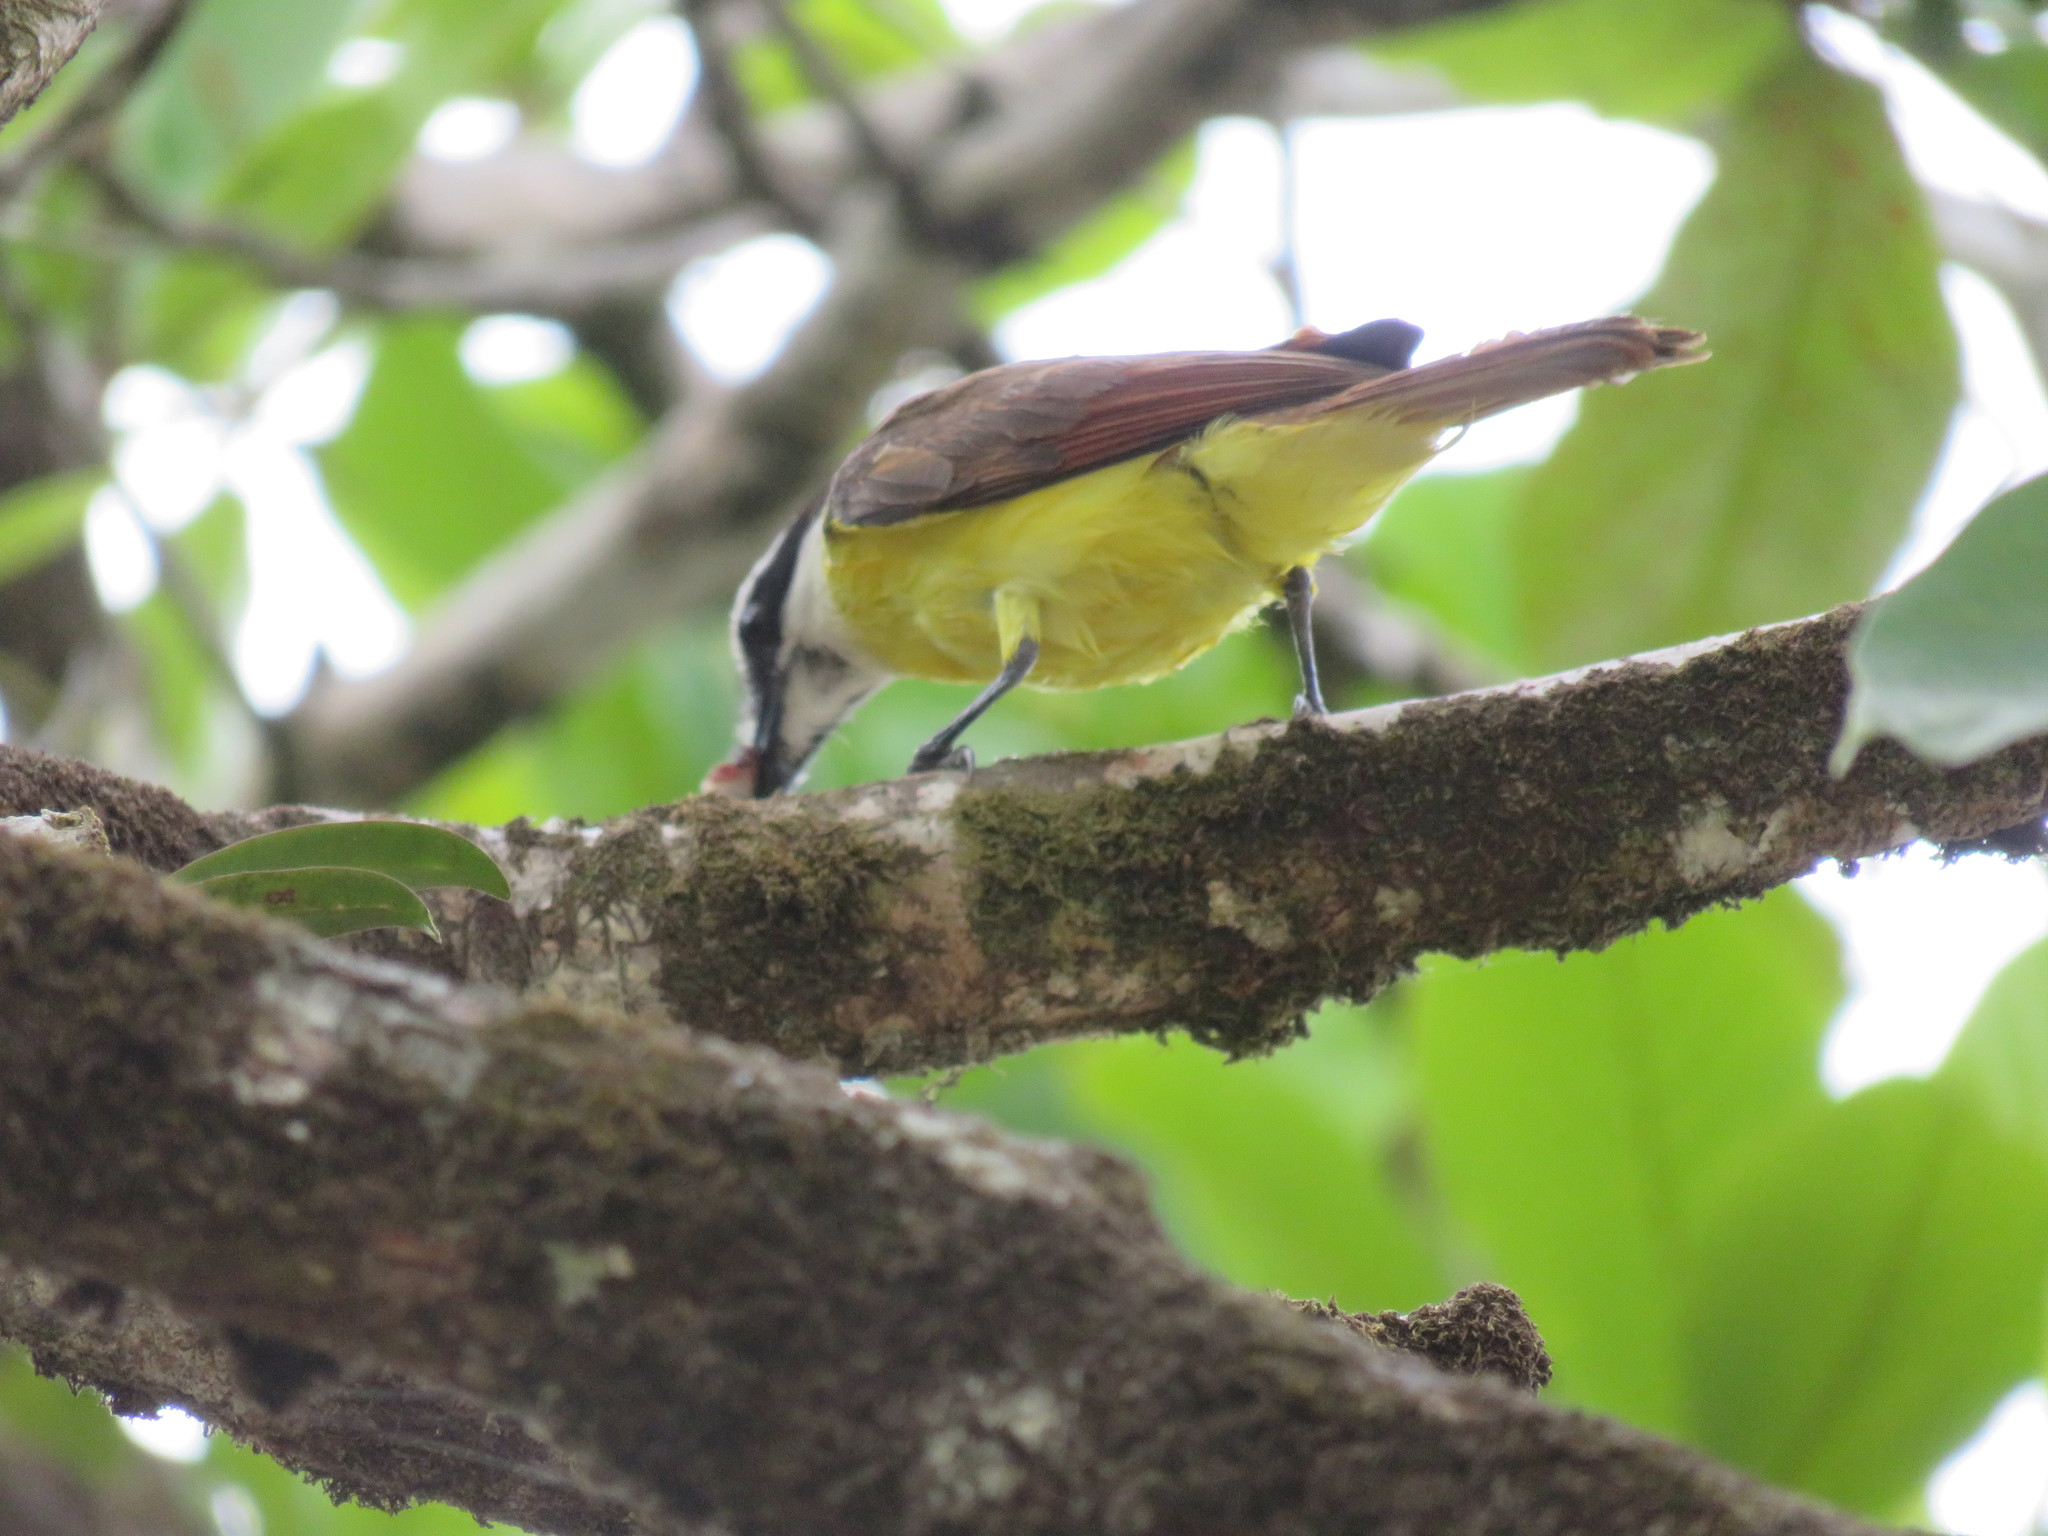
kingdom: Animalia
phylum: Chordata
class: Aves
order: Passeriformes
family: Tyrannidae
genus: Pitangus
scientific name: Pitangus sulphuratus
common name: Great kiskadee
